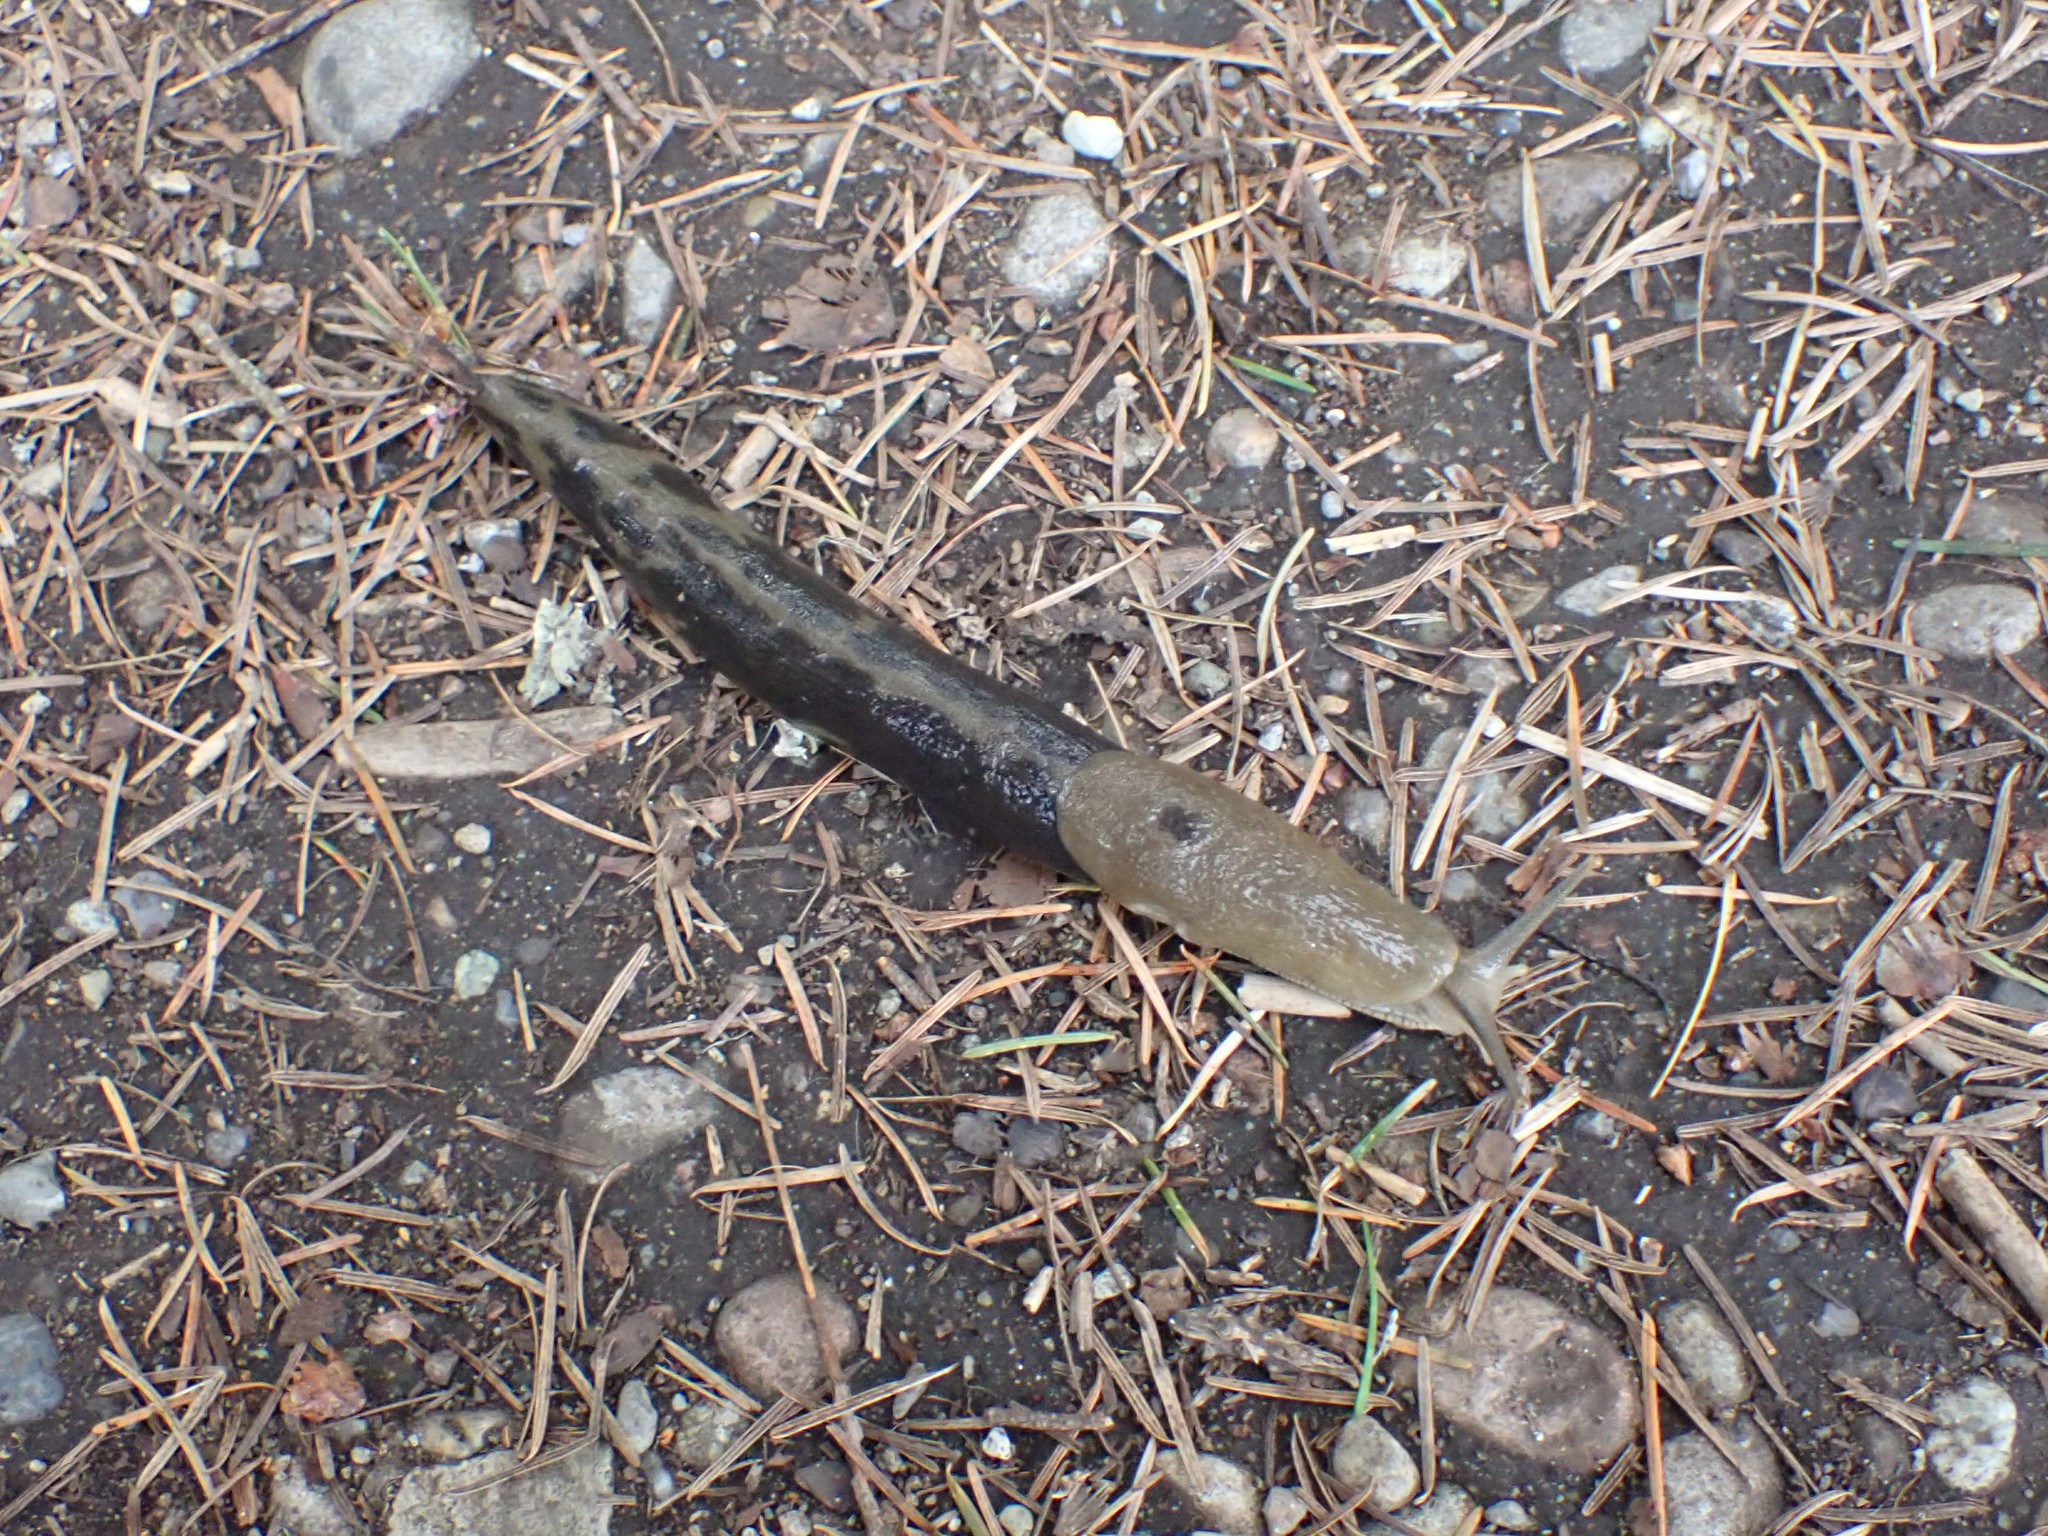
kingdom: Animalia
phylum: Mollusca
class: Gastropoda
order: Stylommatophora
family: Ariolimacidae
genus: Ariolimax
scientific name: Ariolimax columbianus
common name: Pacific banana slug
